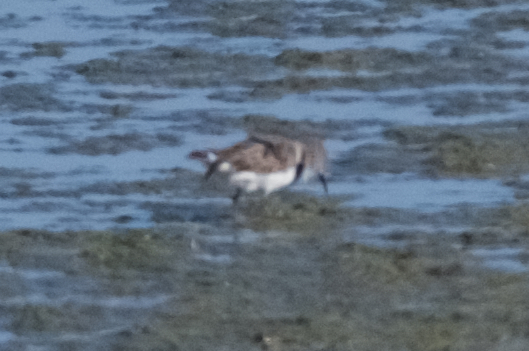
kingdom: Animalia
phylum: Chordata
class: Aves
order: Charadriiformes
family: Scolopacidae
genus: Calidris
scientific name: Calidris mauri
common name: Western sandpiper
